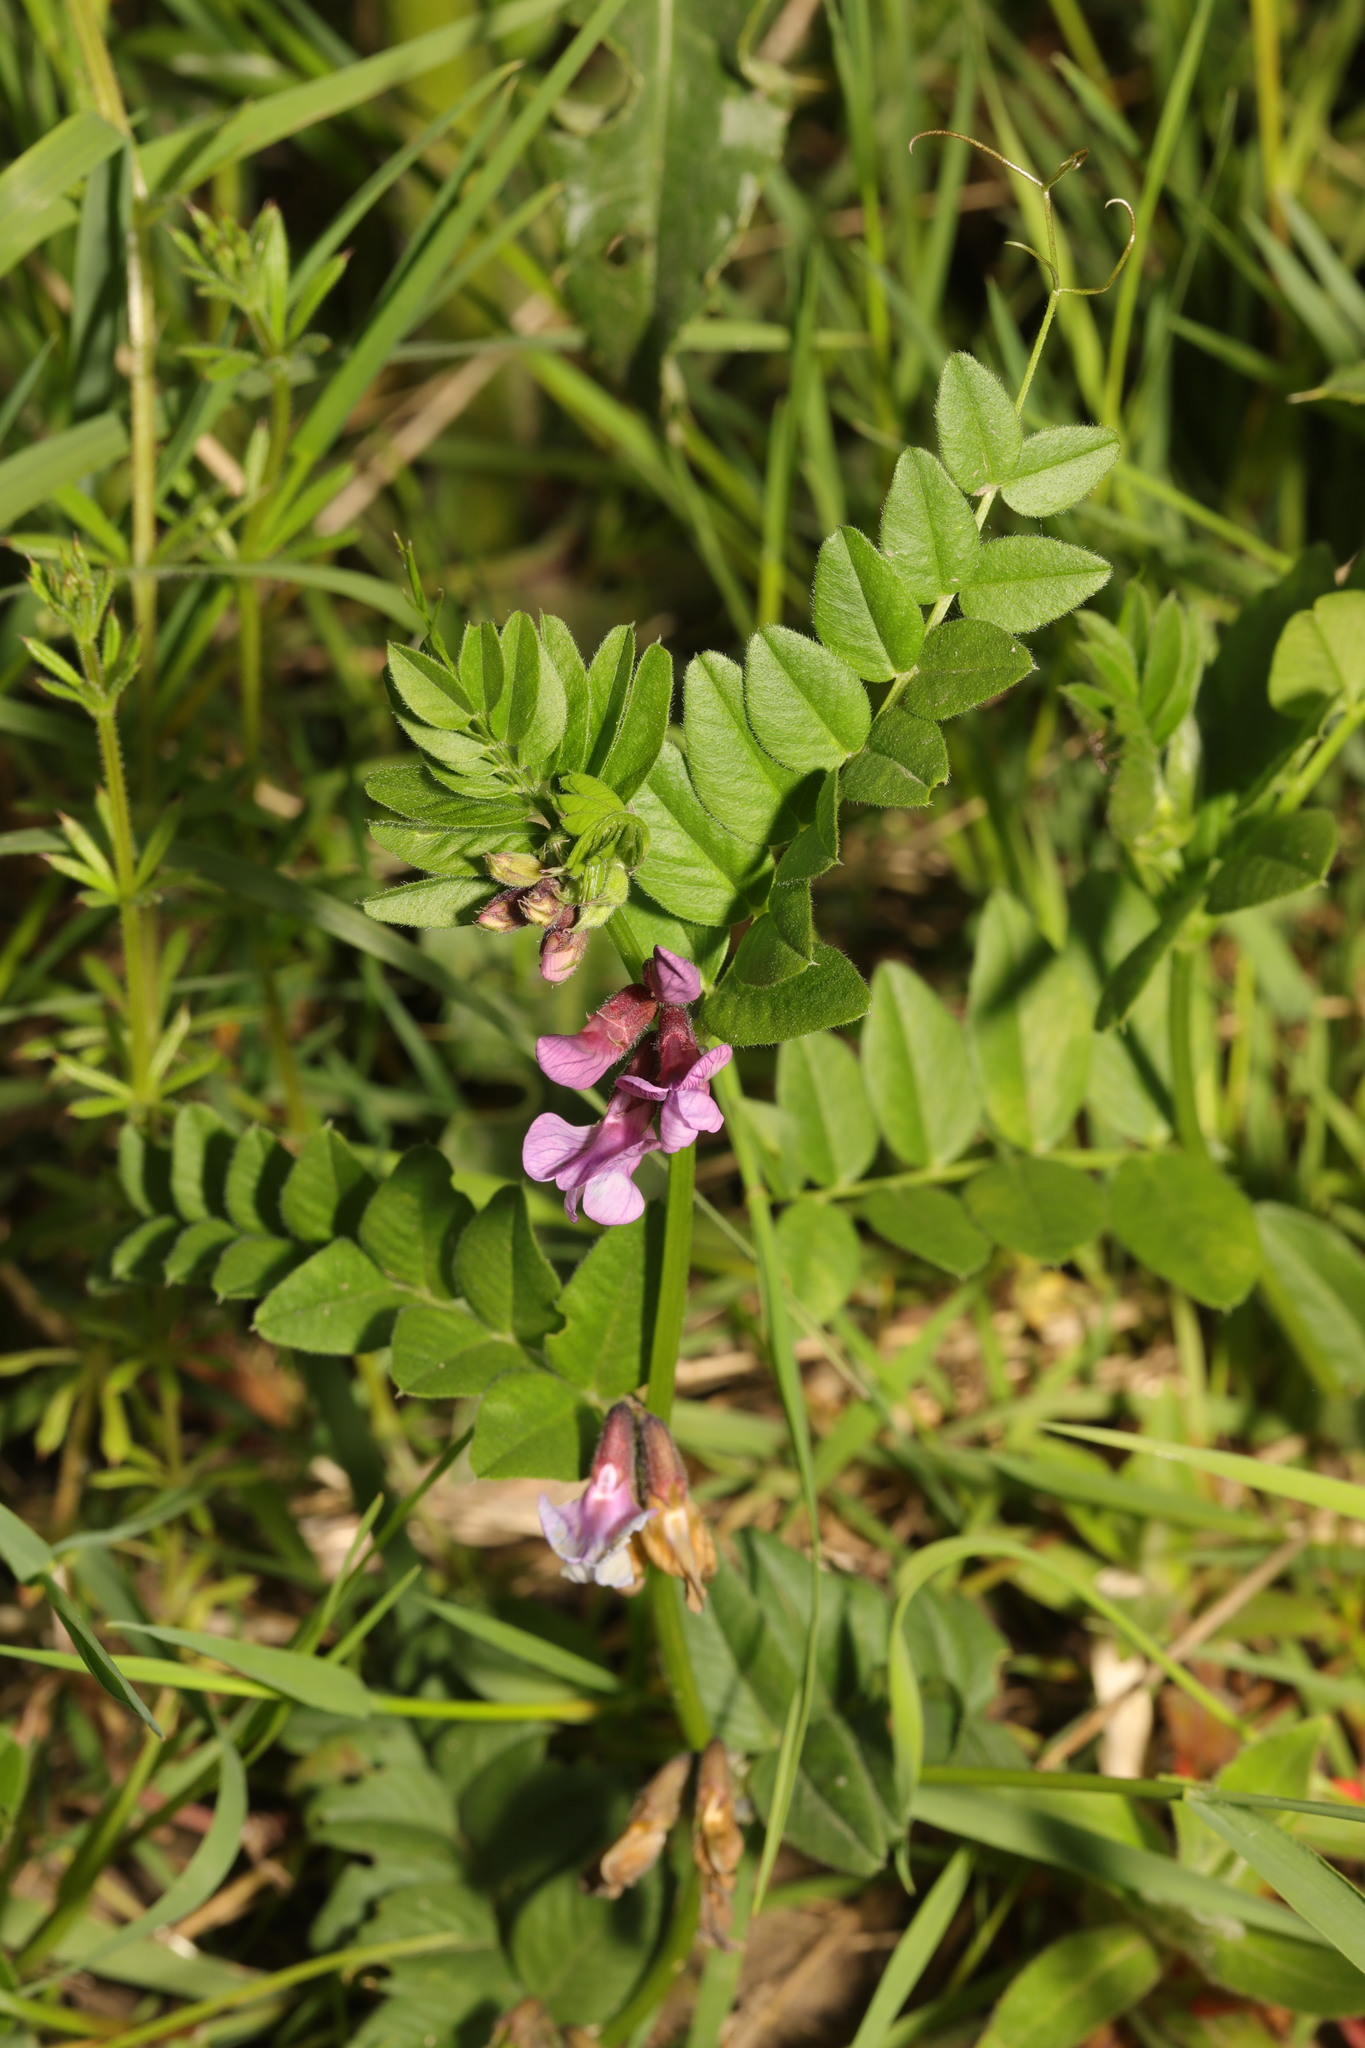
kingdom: Plantae
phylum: Tracheophyta
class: Magnoliopsida
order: Fabales
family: Fabaceae
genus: Vicia
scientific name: Vicia sepium
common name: Bush vetch
